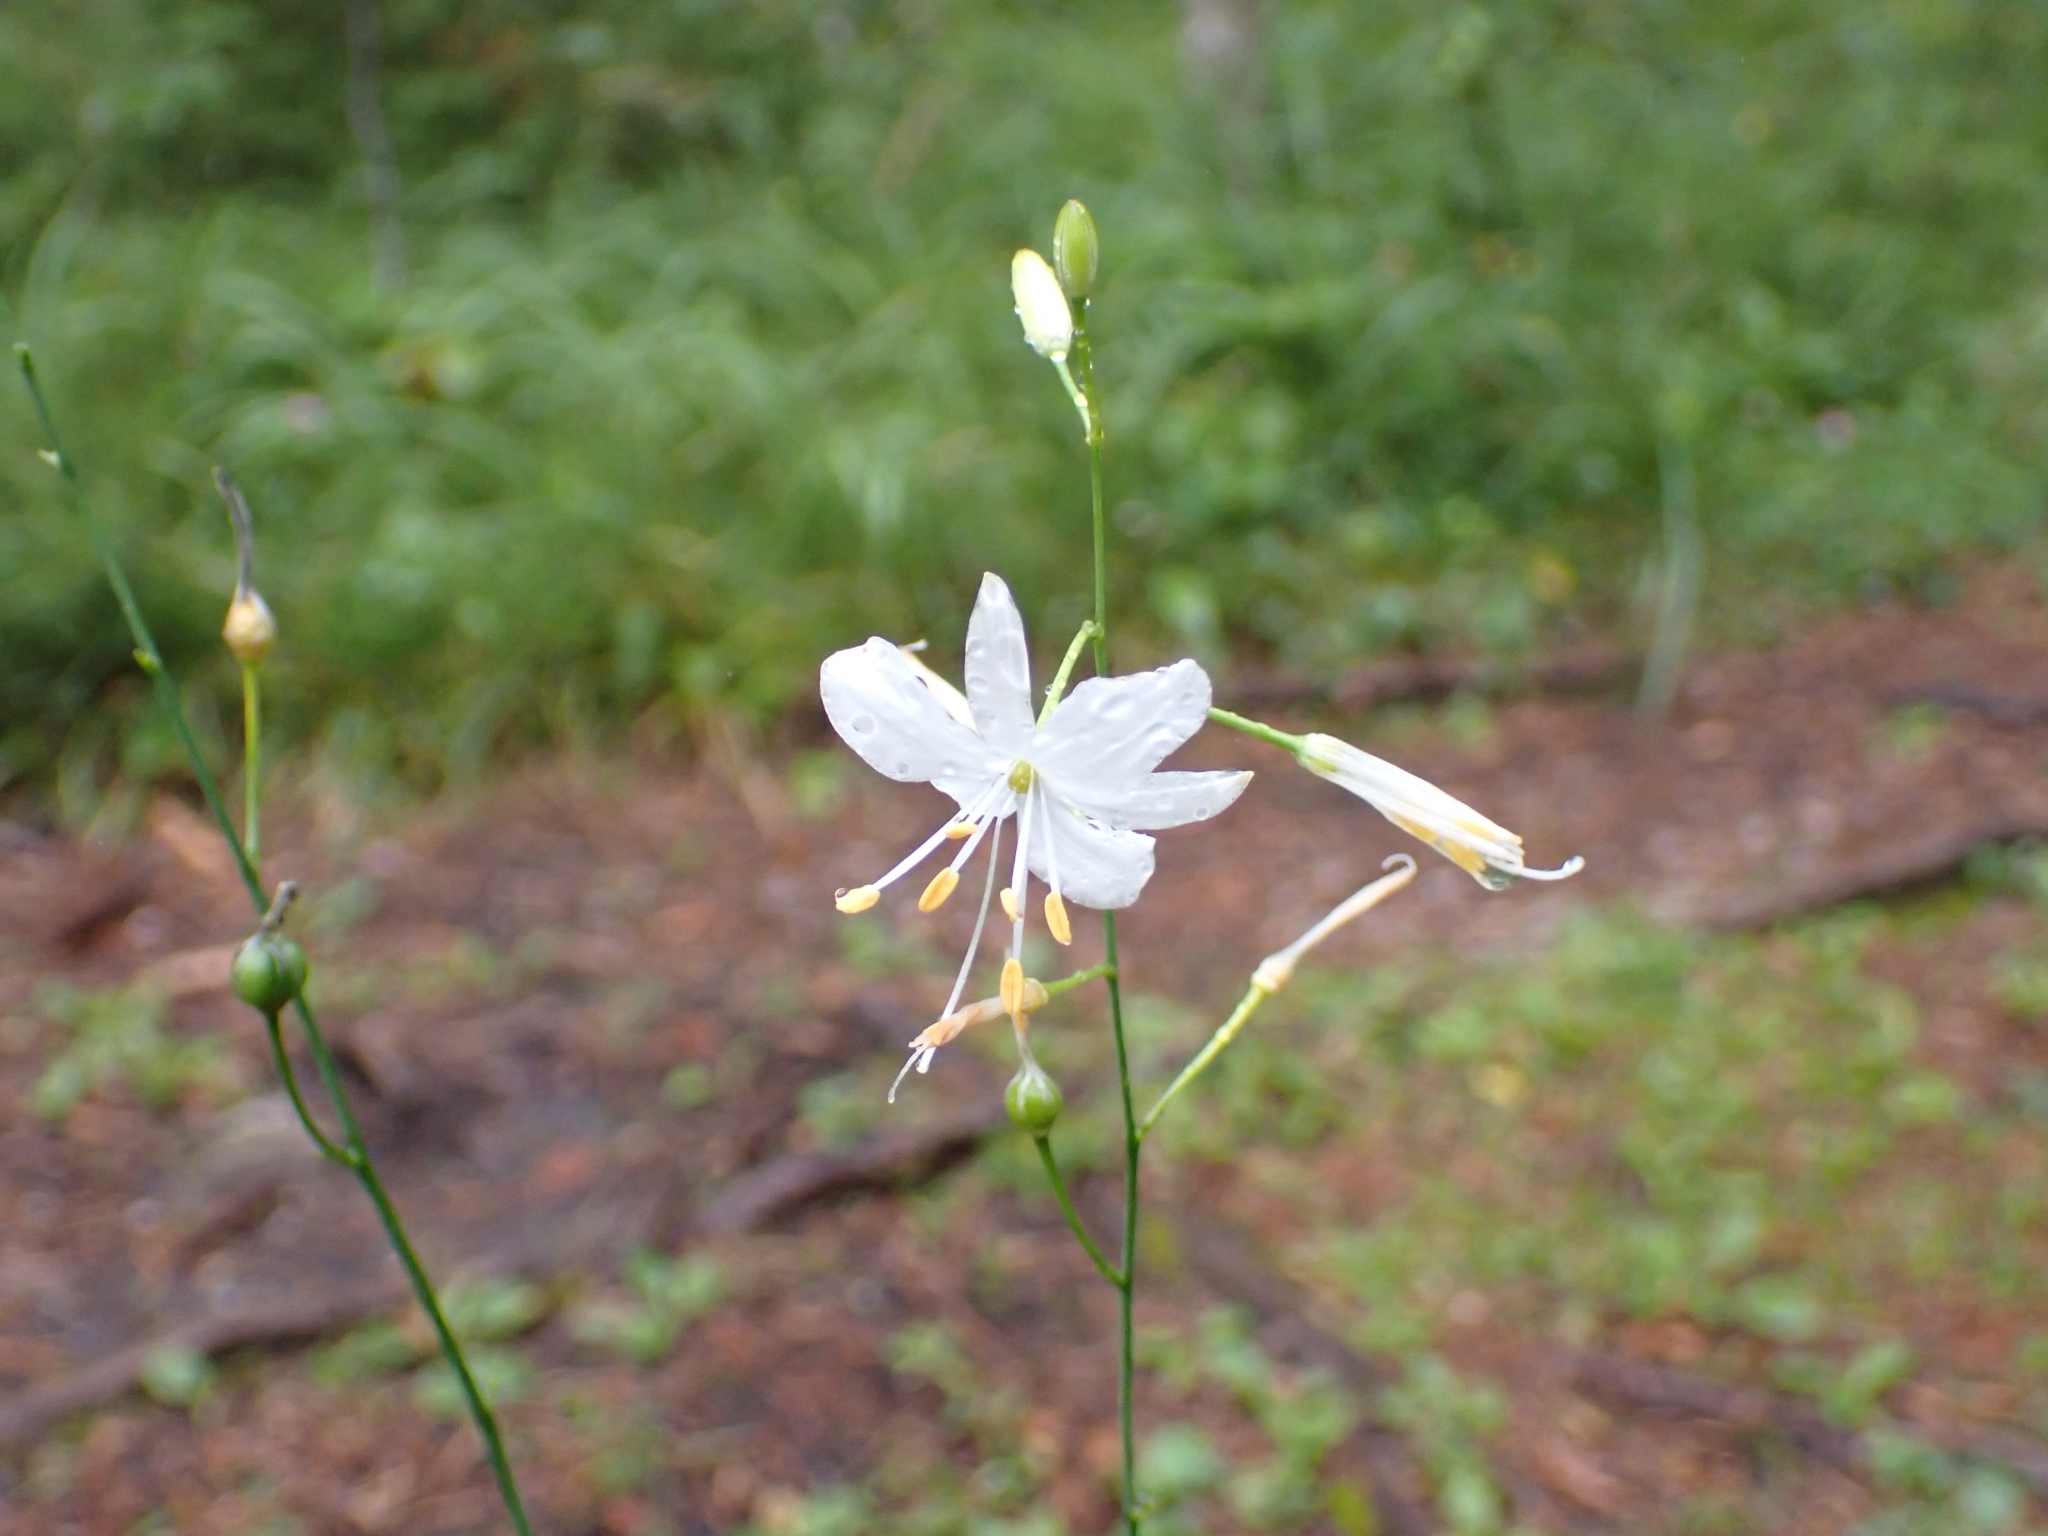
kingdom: Plantae
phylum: Tracheophyta
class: Liliopsida
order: Asparagales
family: Asparagaceae
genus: Anthericum
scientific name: Anthericum ramosum
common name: Branched st. bernard's-lily
